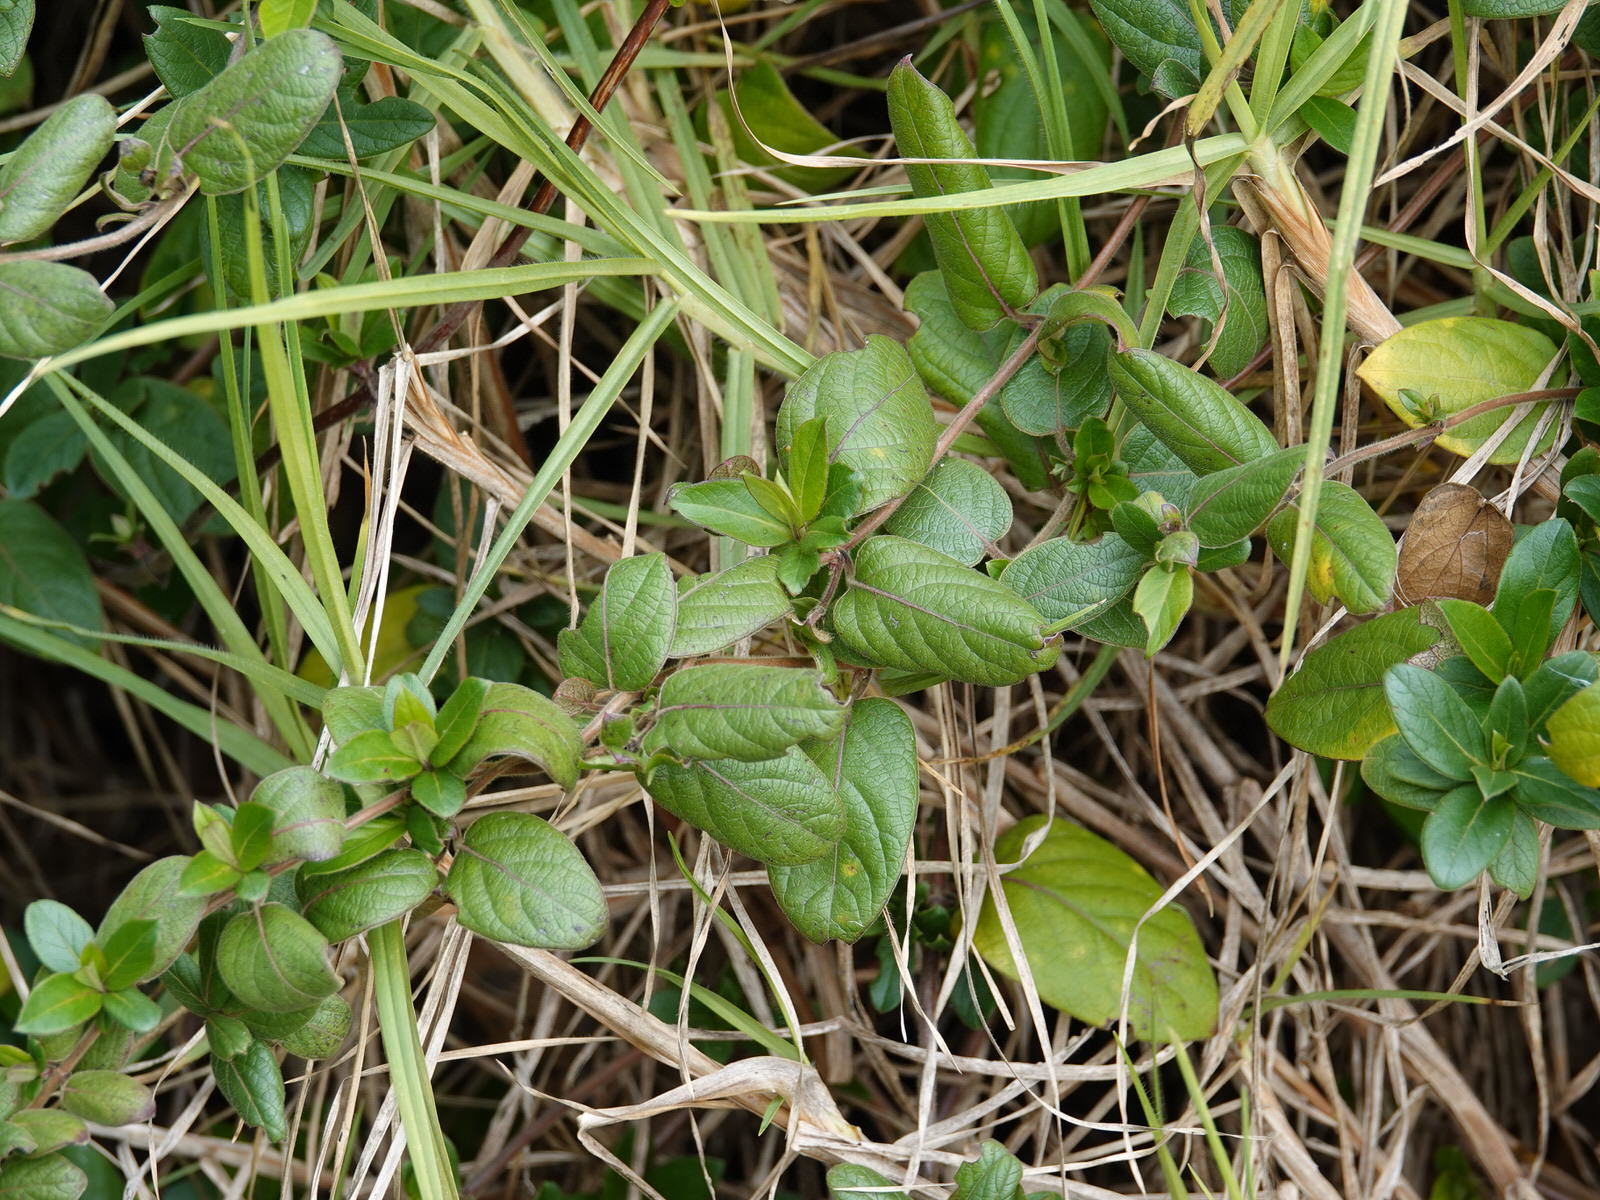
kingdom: Plantae
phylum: Tracheophyta
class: Magnoliopsida
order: Dipsacales
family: Caprifoliaceae
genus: Lonicera
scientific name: Lonicera japonica
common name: Japanese honeysuckle
